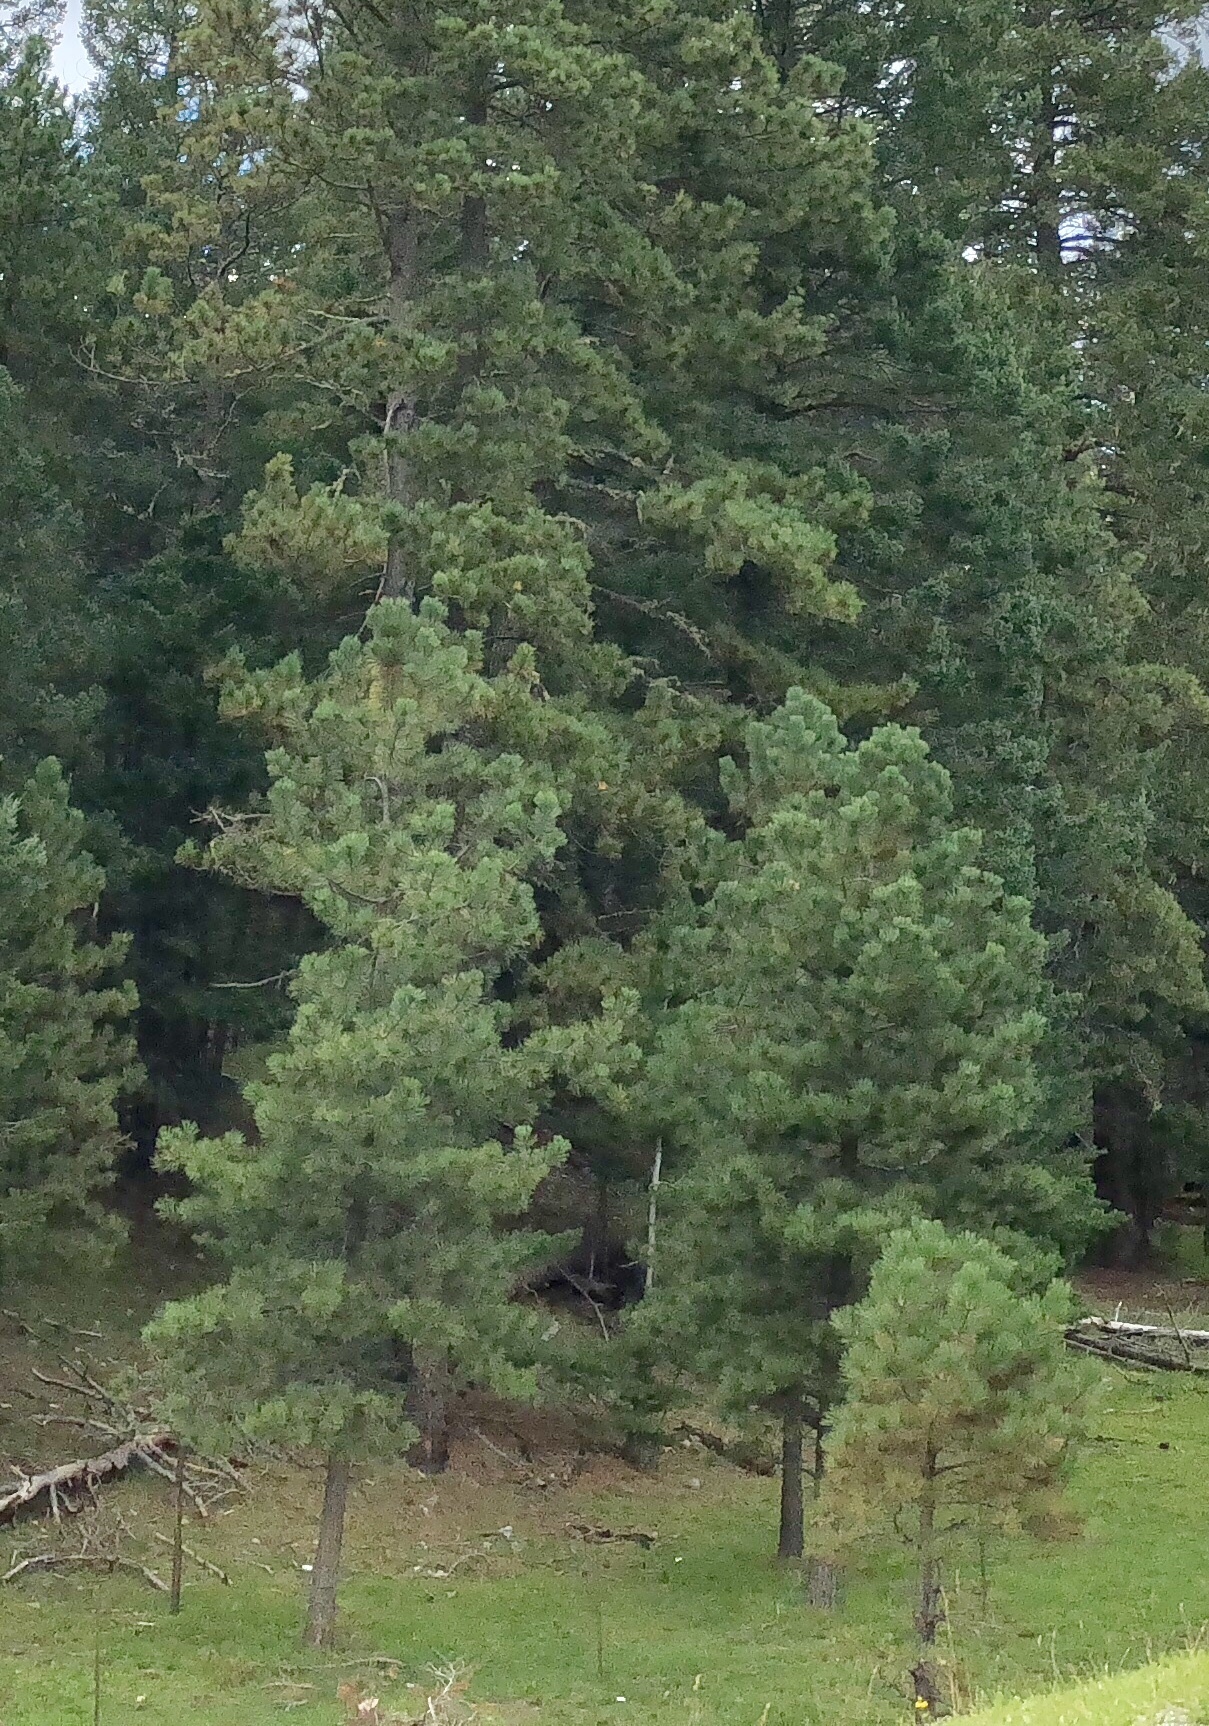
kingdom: Plantae
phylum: Tracheophyta
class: Pinopsida
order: Pinales
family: Pinaceae
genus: Pinus
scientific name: Pinus ponderosa
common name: Western yellow-pine
